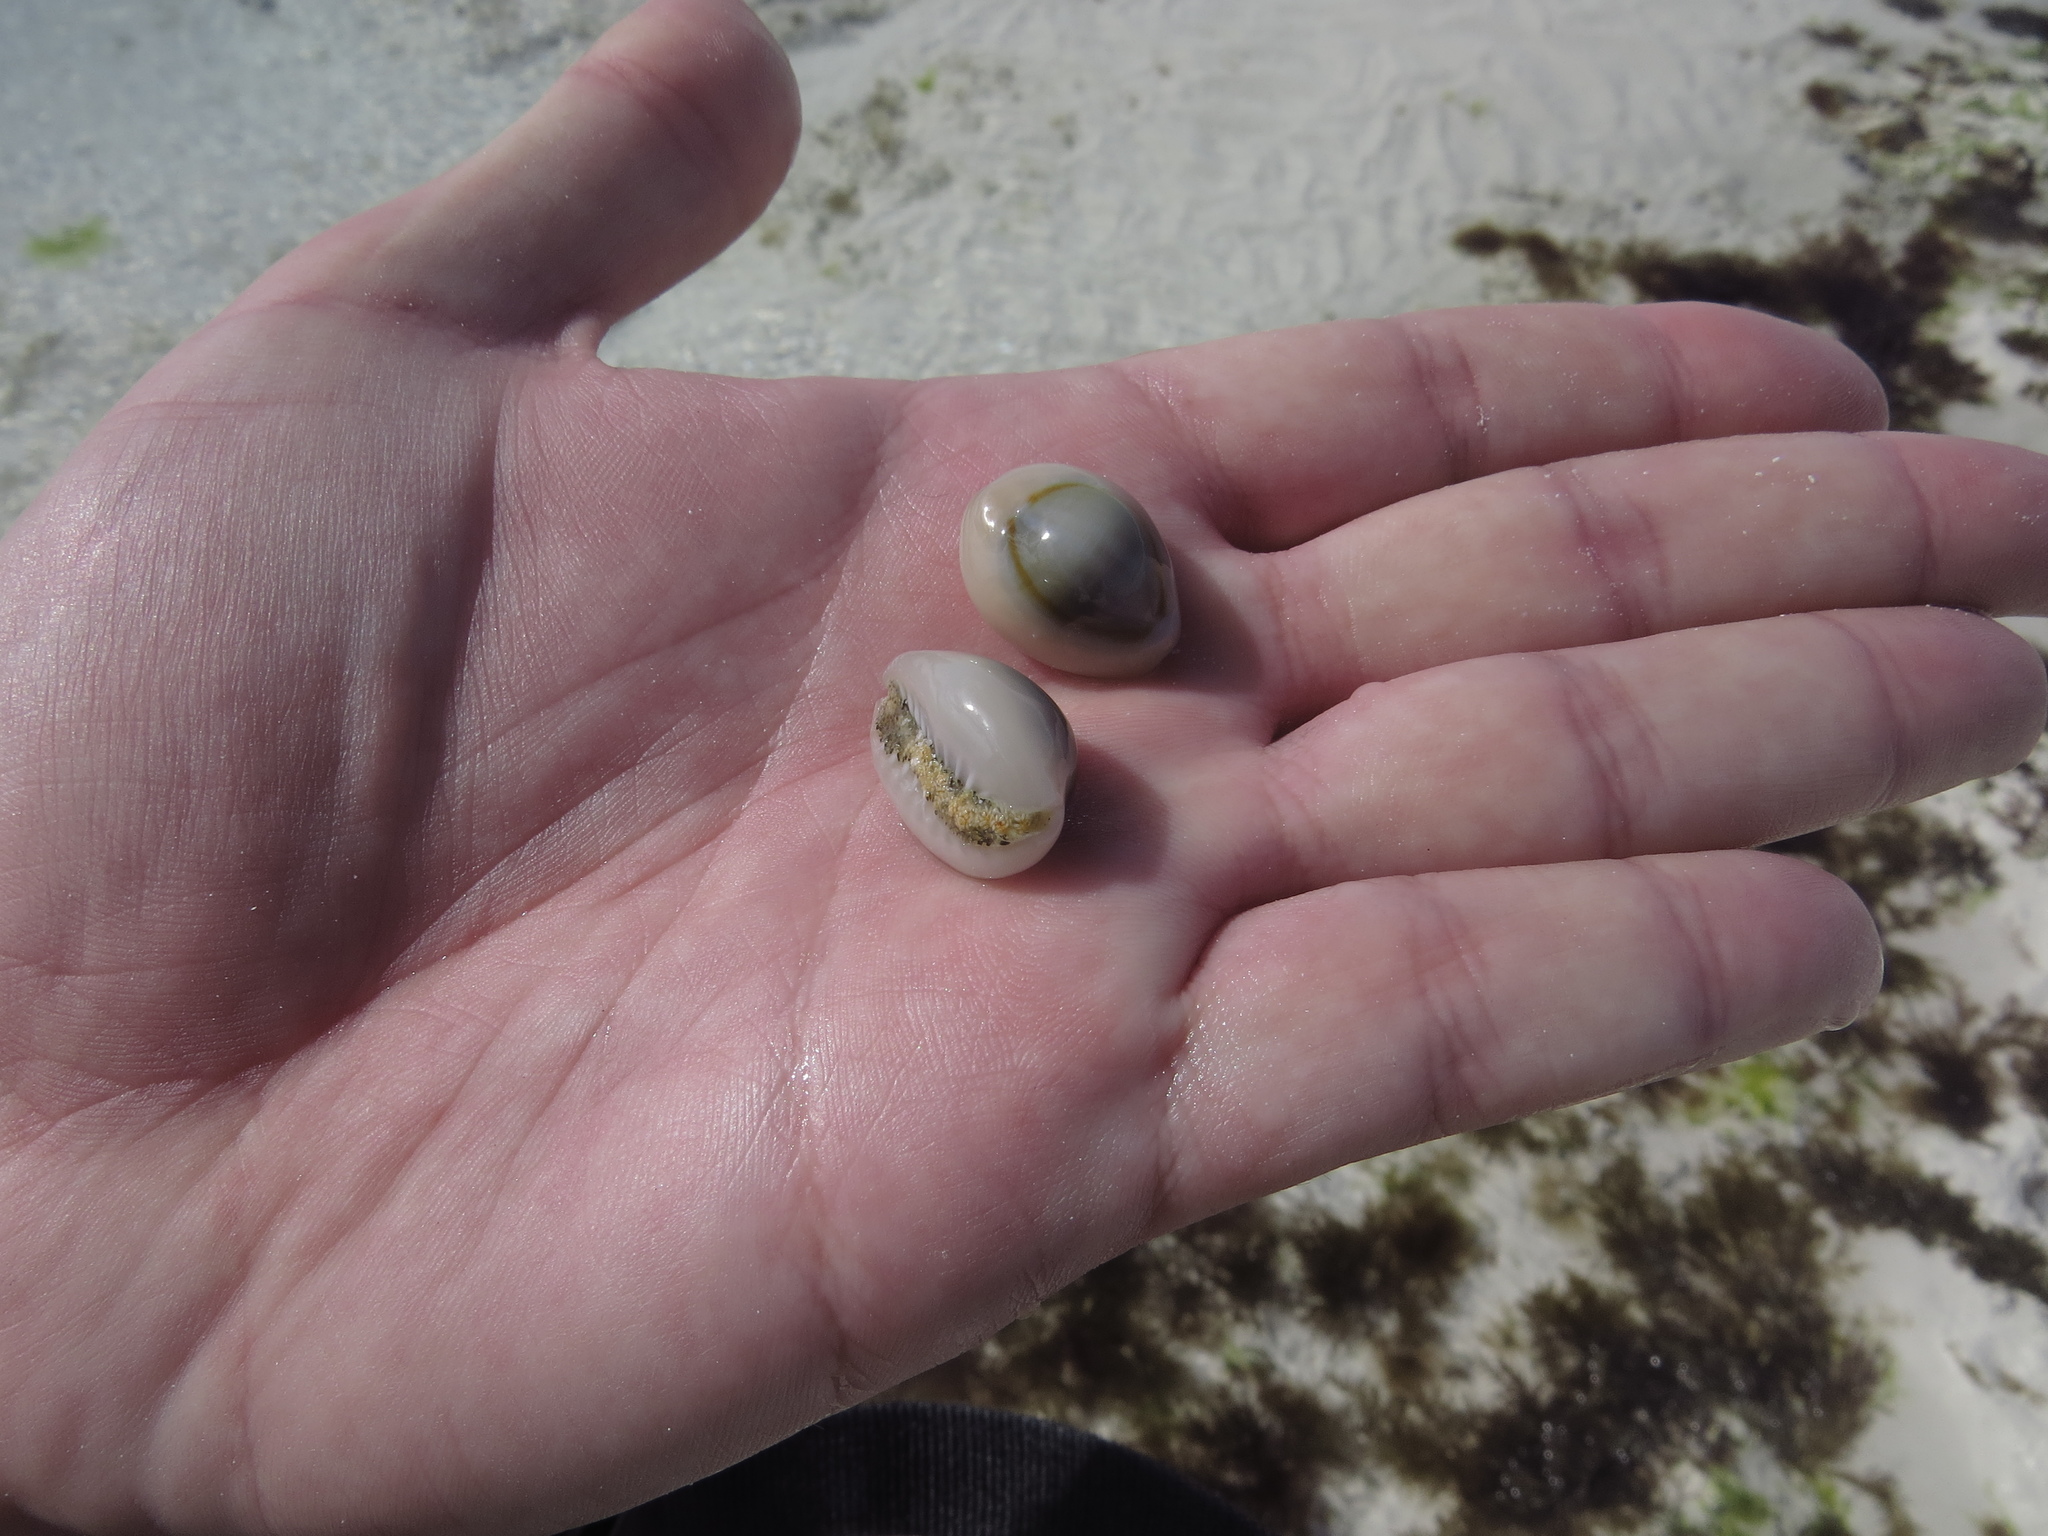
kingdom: Animalia
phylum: Mollusca
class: Gastropoda
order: Littorinimorpha
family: Cypraeidae
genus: Monetaria
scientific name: Monetaria annulus
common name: Ring cowrie
